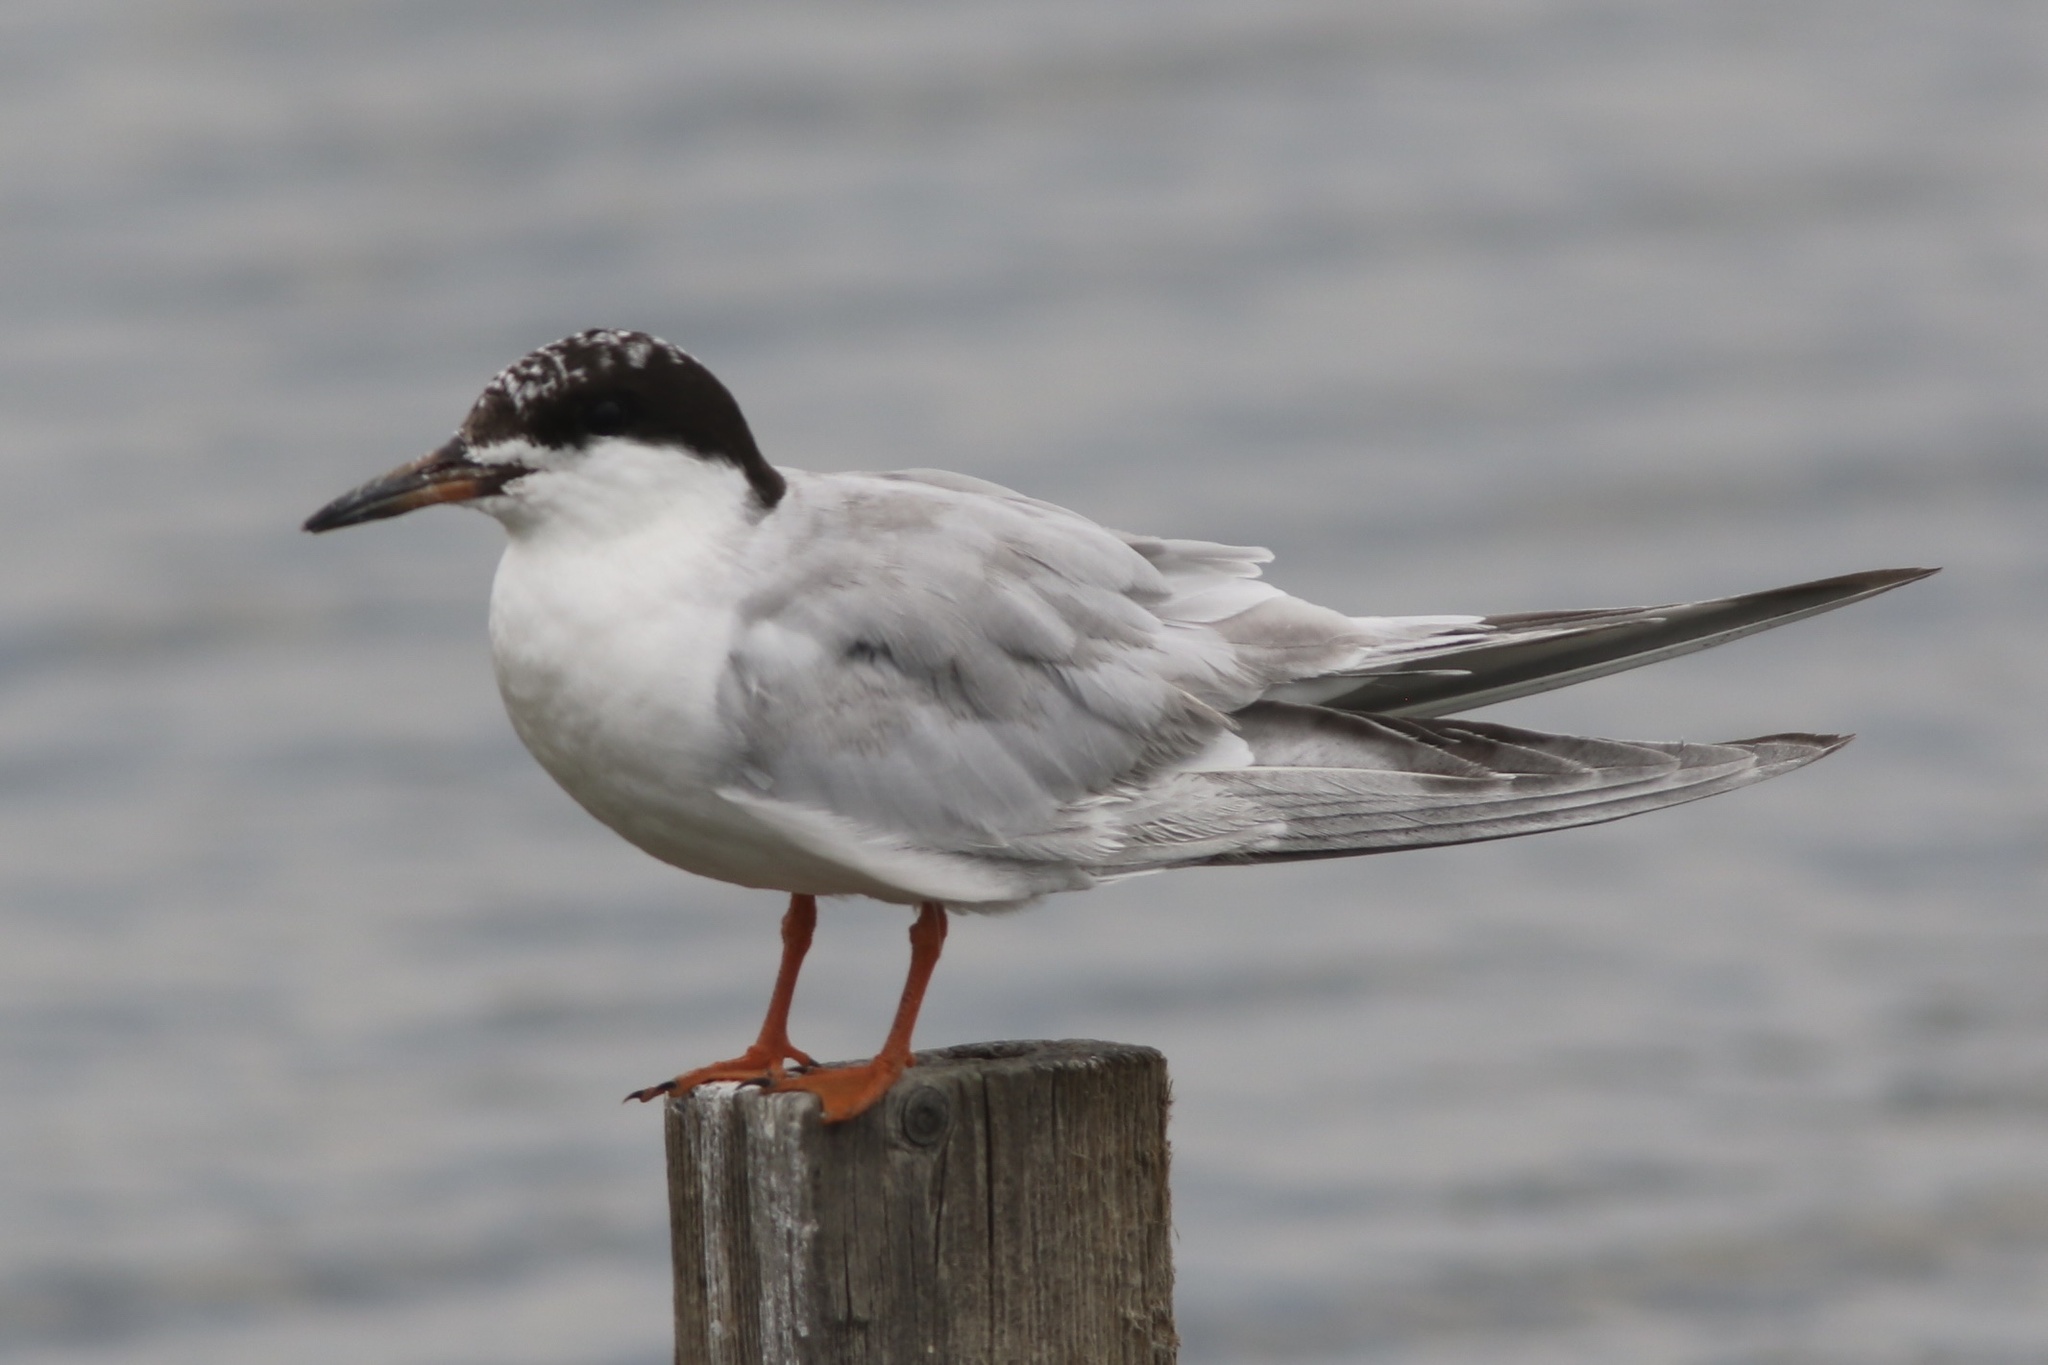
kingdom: Animalia
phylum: Chordata
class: Aves
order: Charadriiformes
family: Laridae
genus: Sterna
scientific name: Sterna forsteri
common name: Forster's tern
